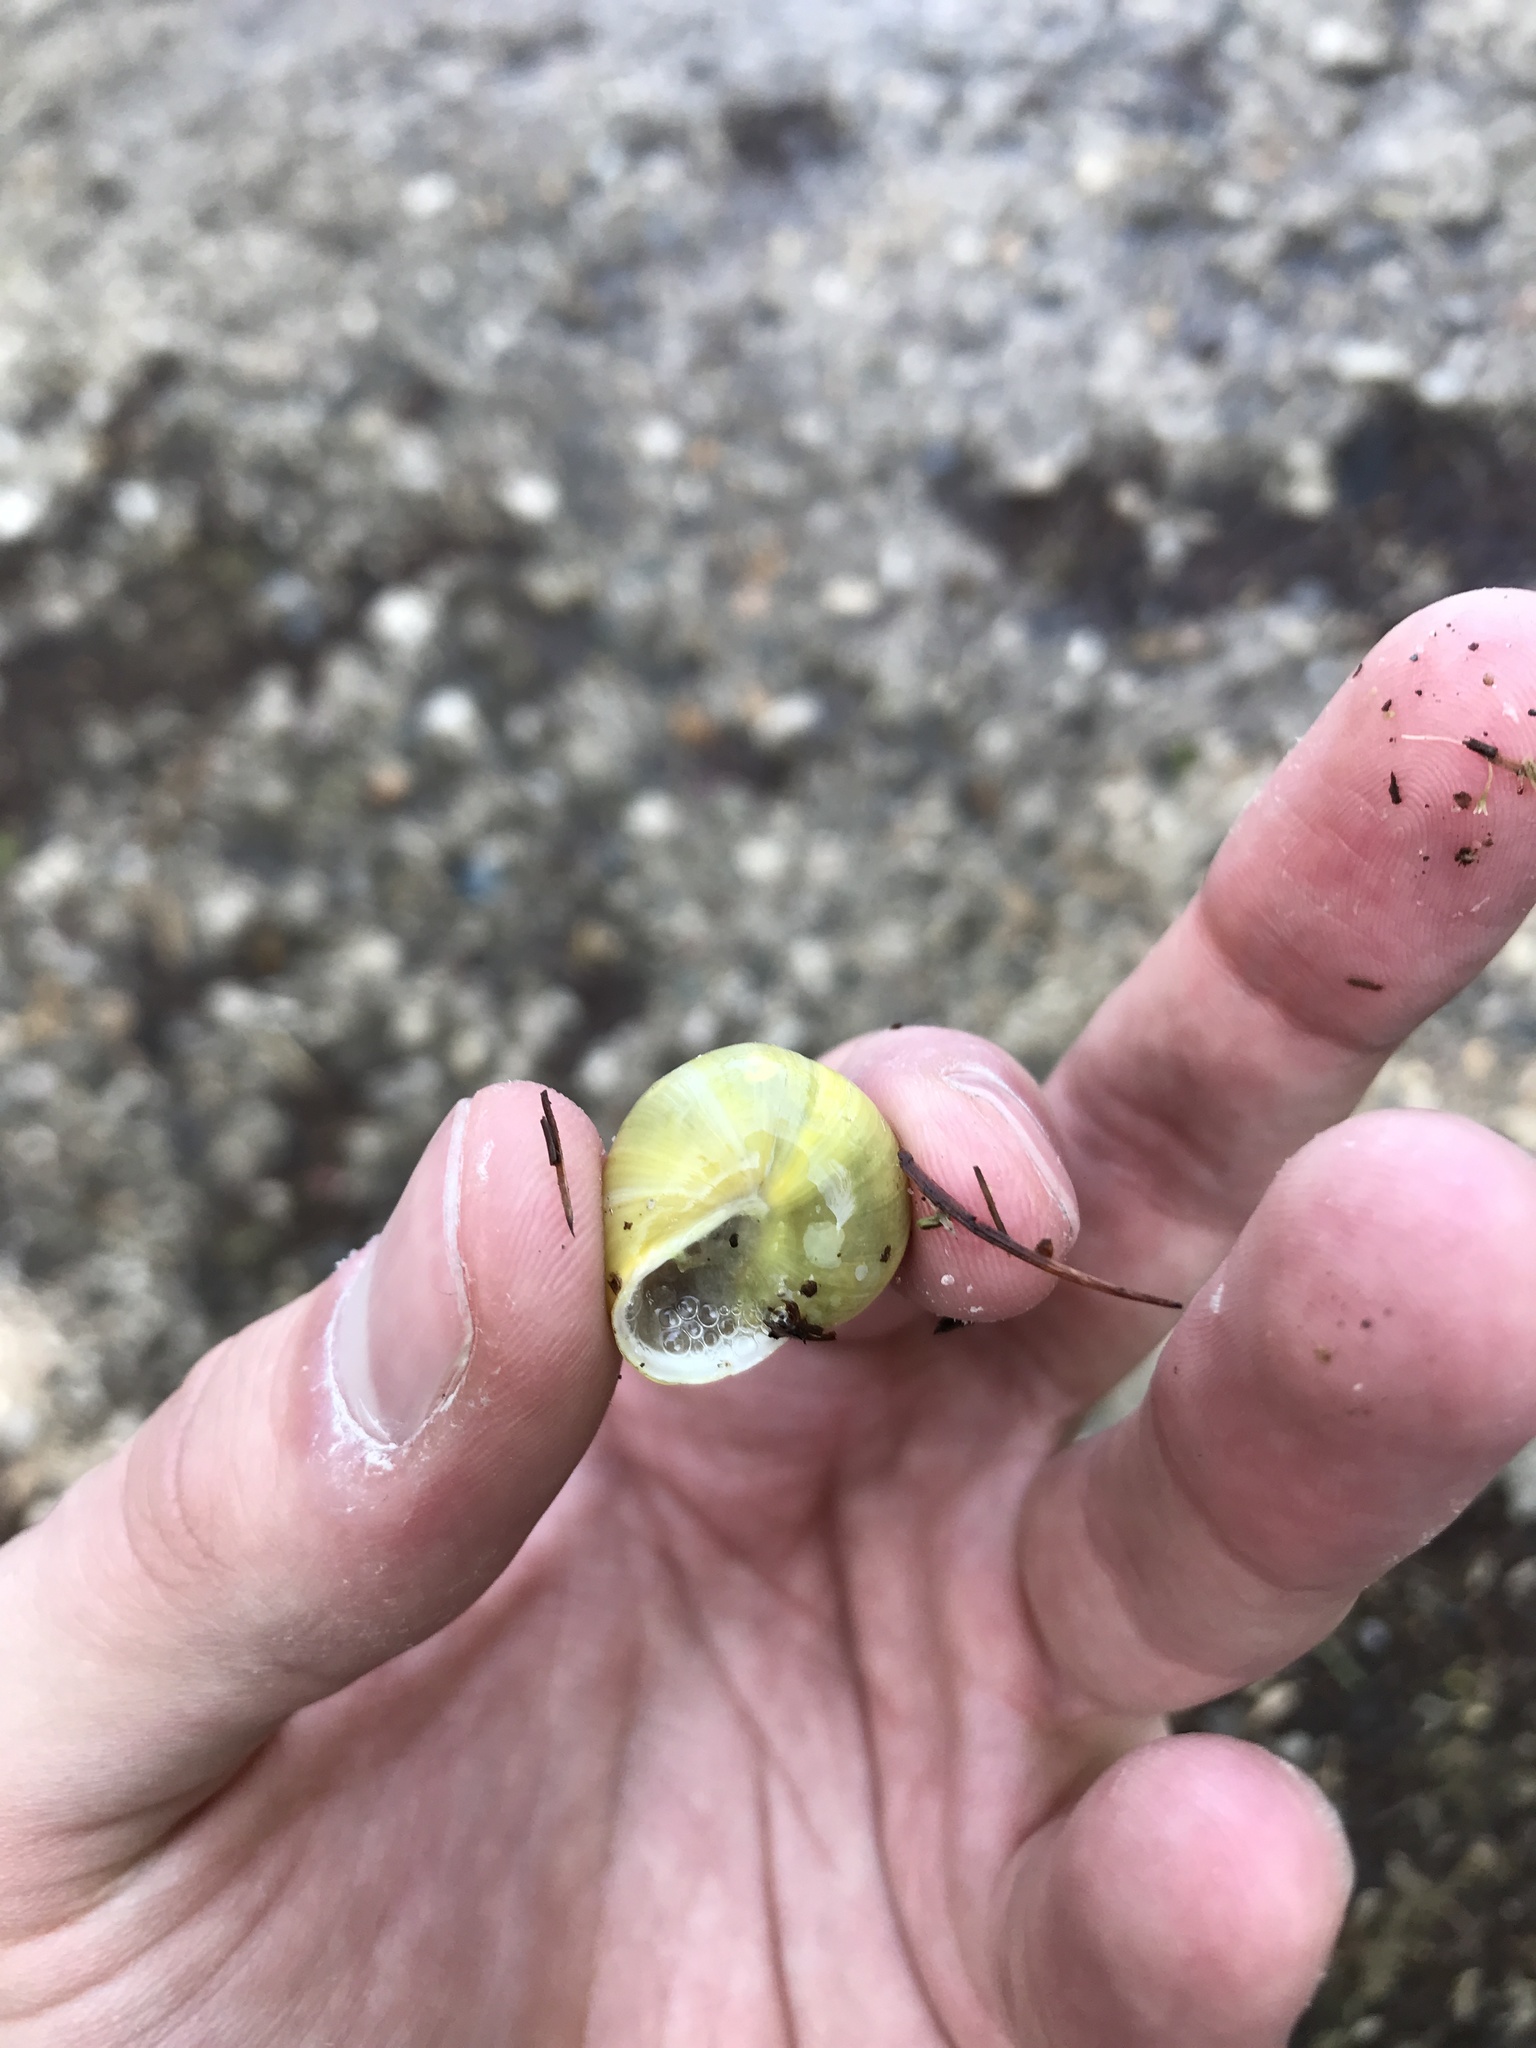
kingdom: Animalia
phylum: Mollusca
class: Gastropoda
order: Stylommatophora
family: Helicidae
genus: Cepaea
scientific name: Cepaea hortensis
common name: White-lip gardensnail
